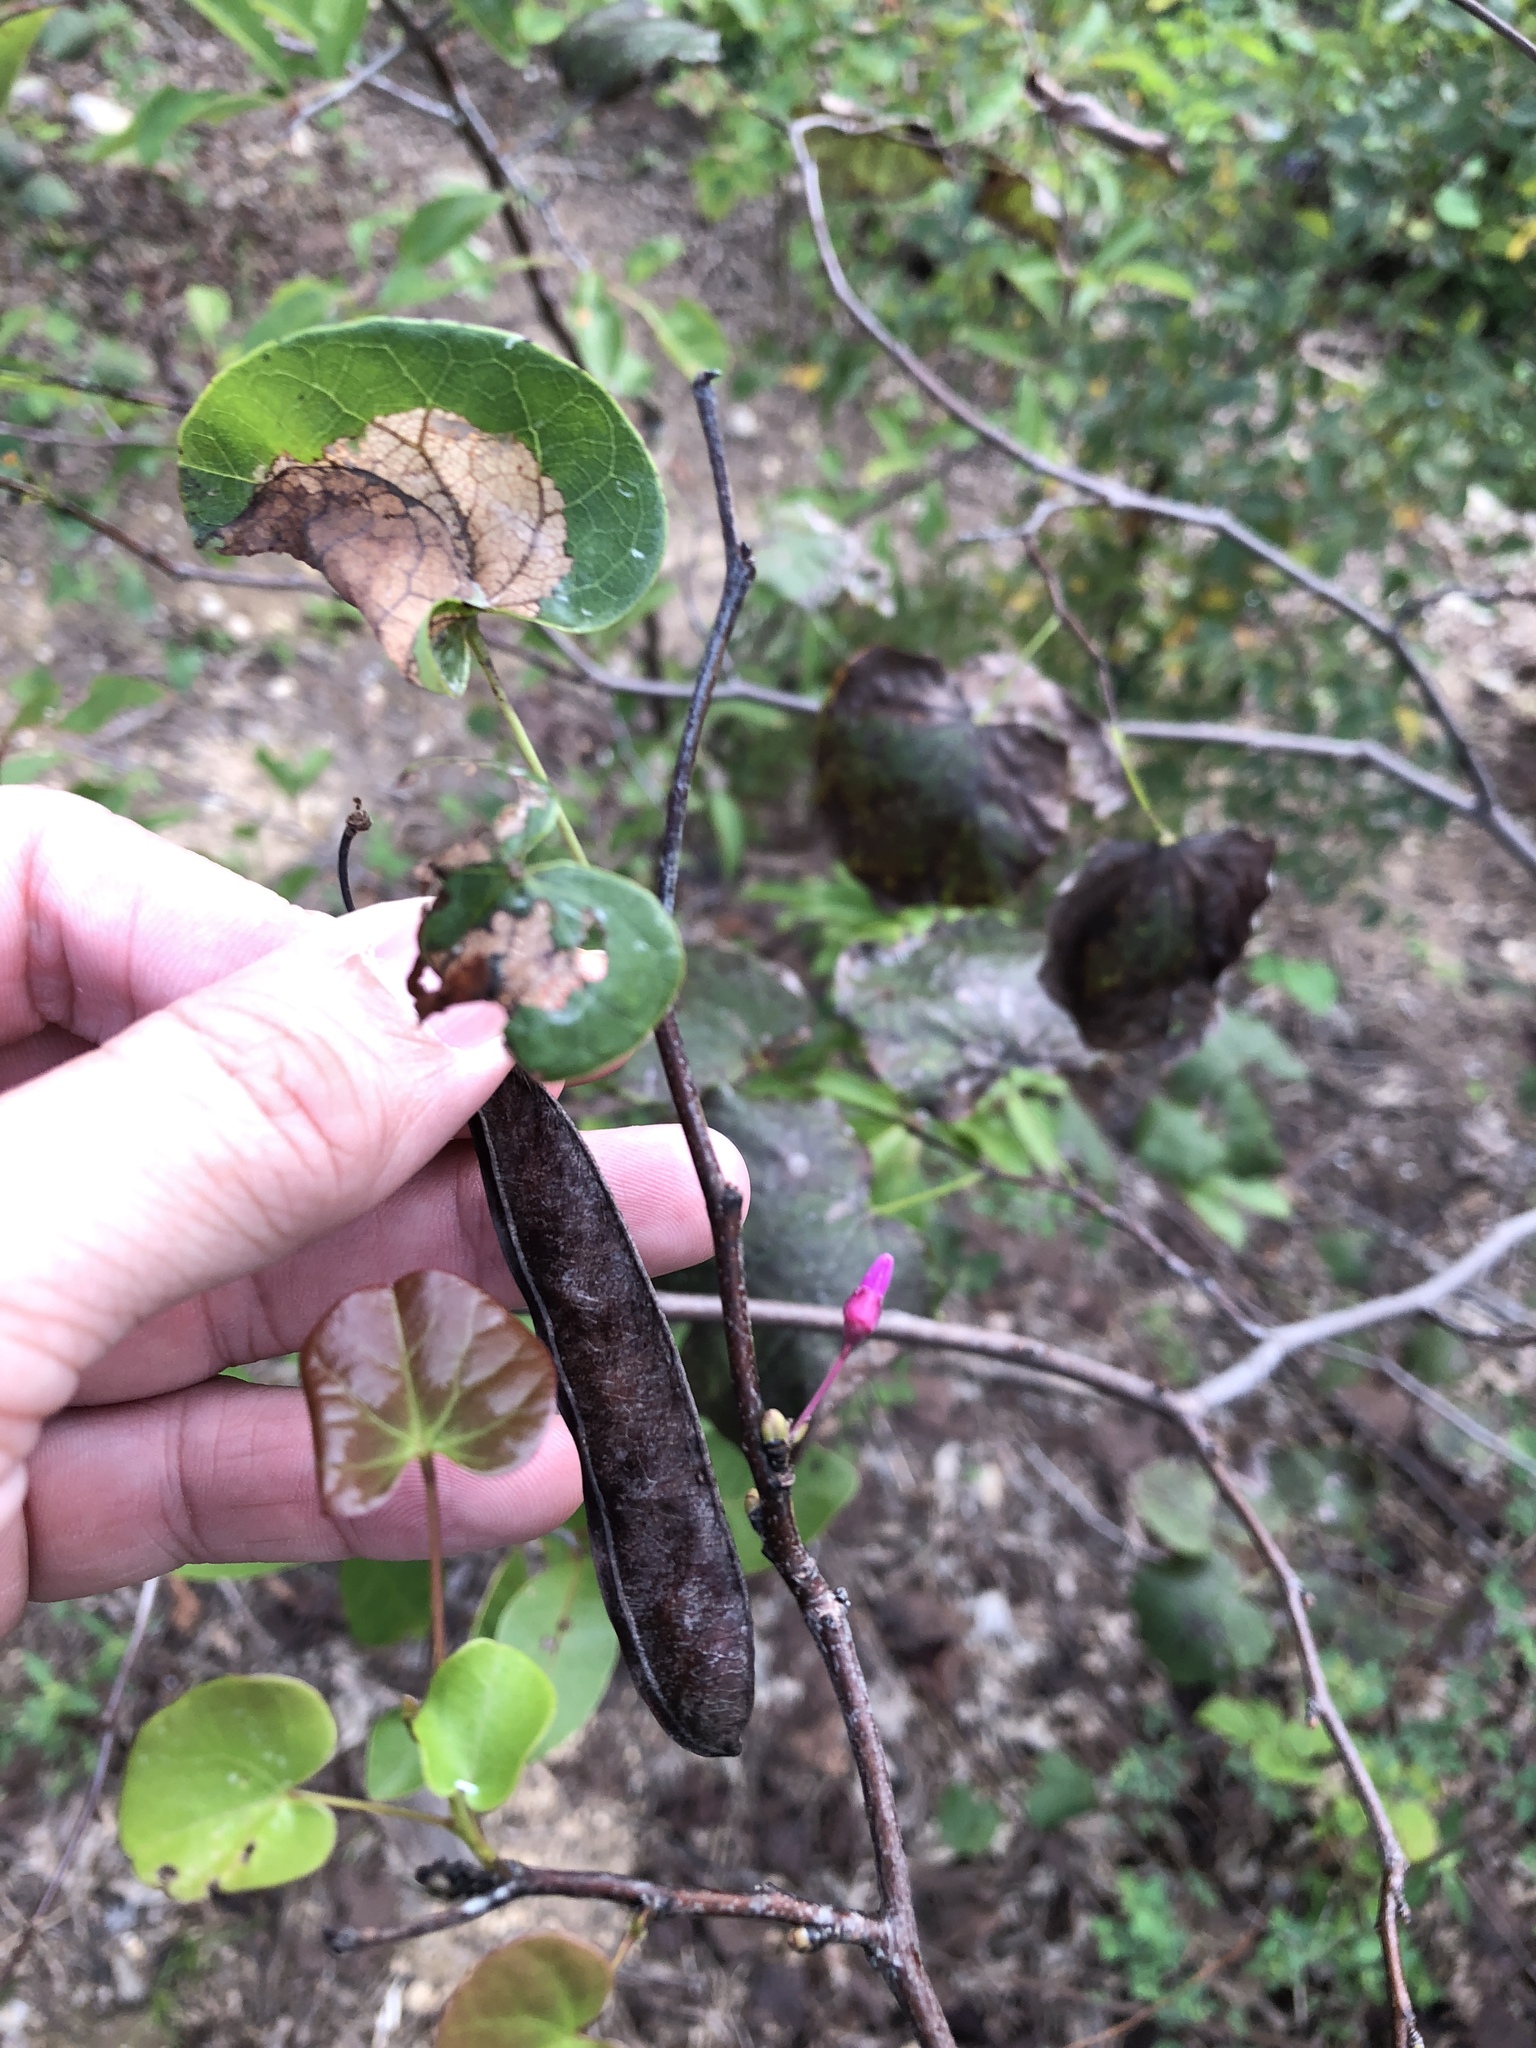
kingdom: Plantae
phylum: Tracheophyta
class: Magnoliopsida
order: Fabales
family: Fabaceae
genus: Cercis
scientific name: Cercis canadensis
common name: Eastern redbud
